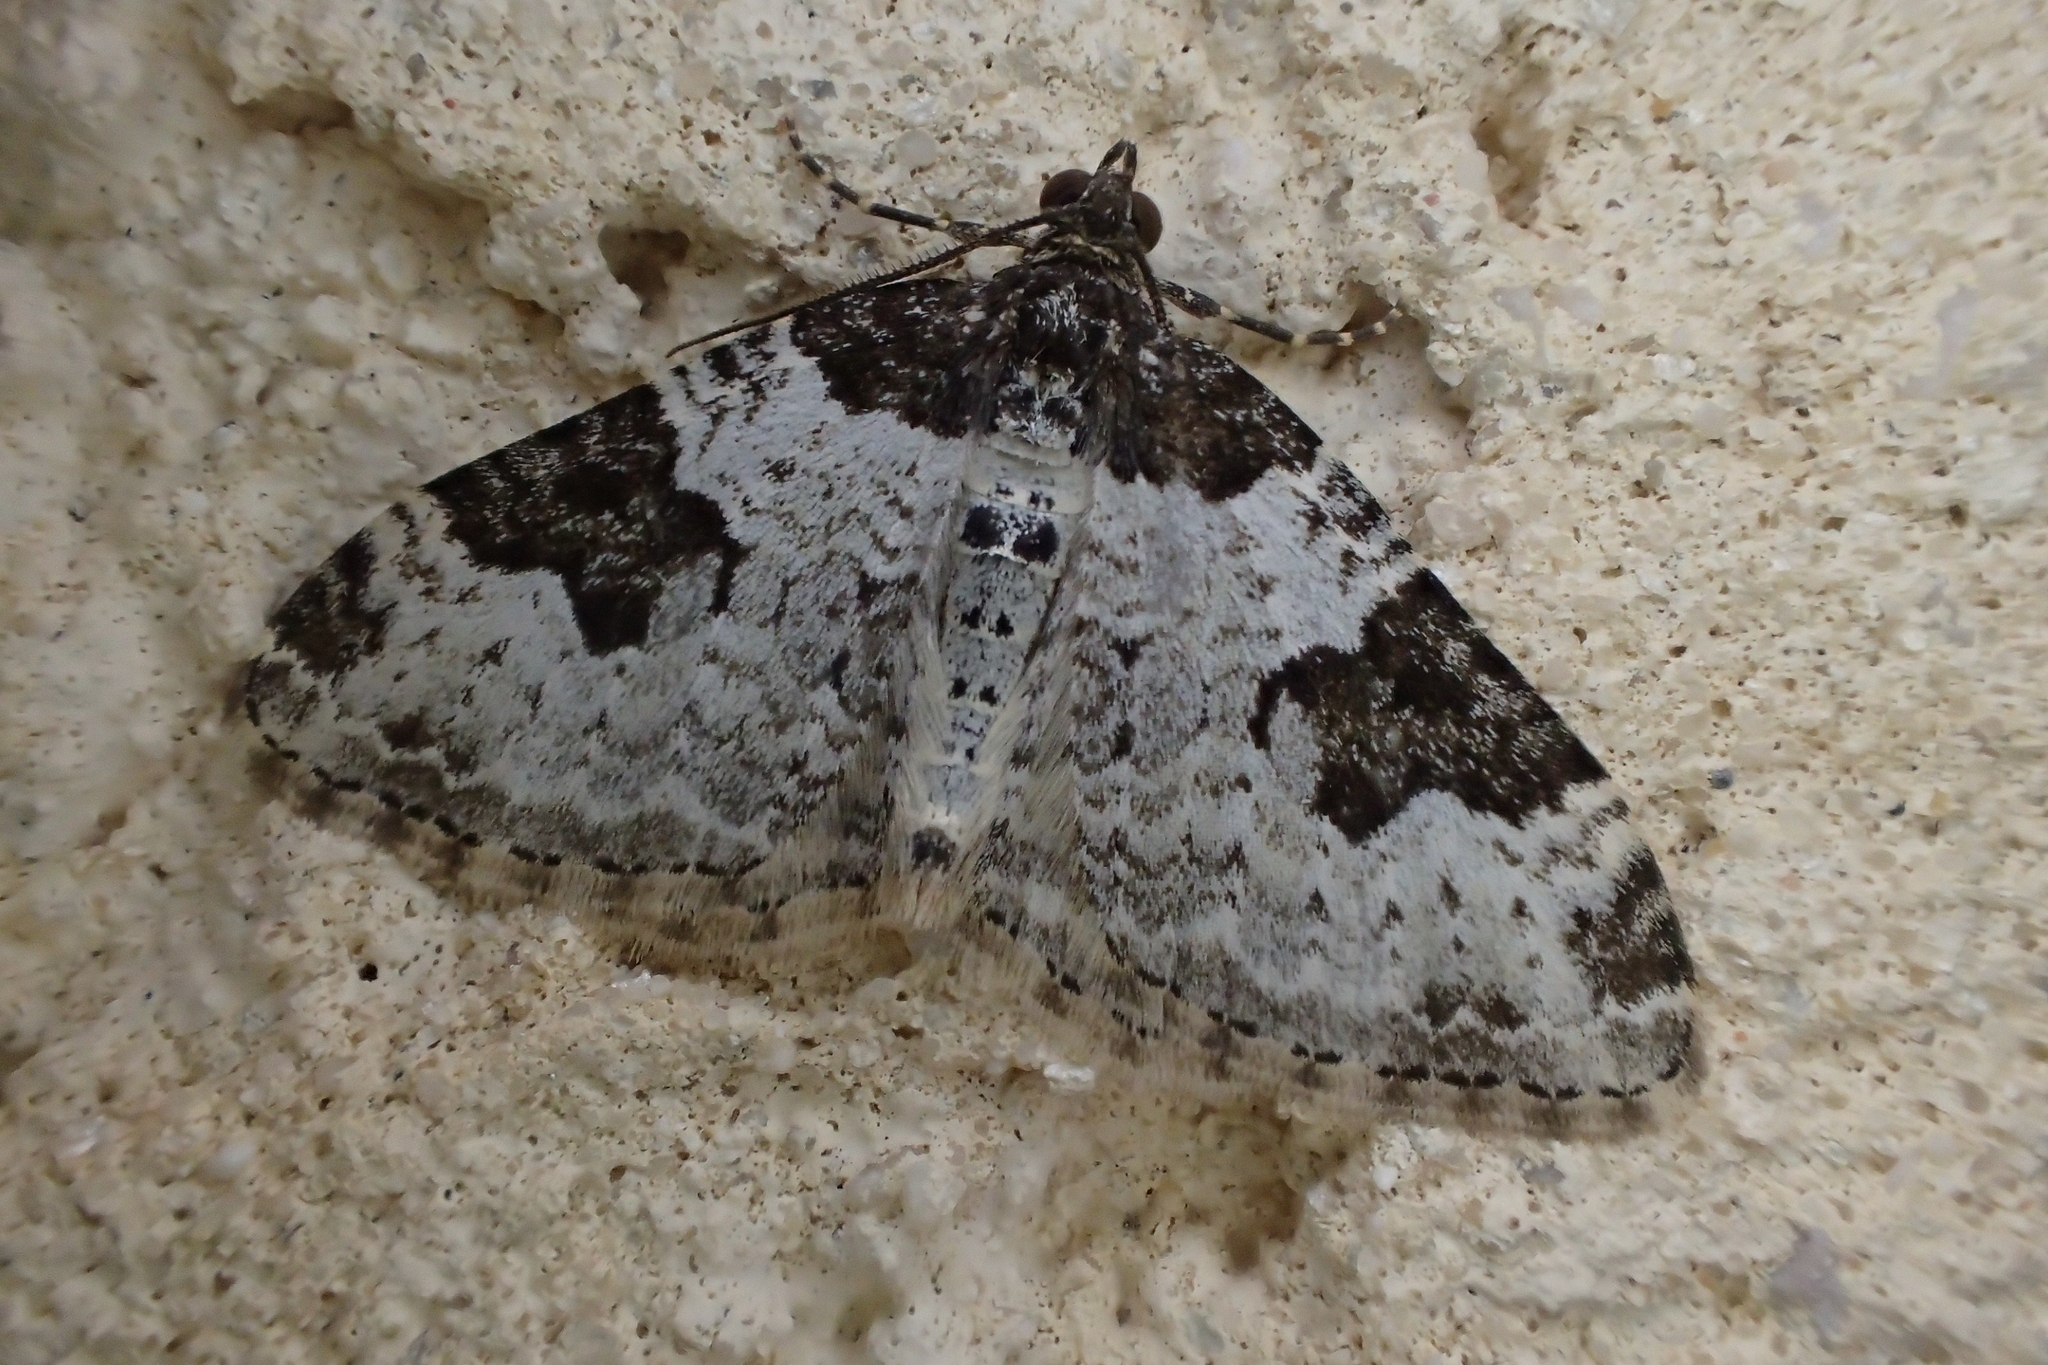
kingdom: Animalia
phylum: Arthropoda
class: Insecta
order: Lepidoptera
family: Geometridae
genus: Xanthorhoe
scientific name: Xanthorhoe fluctuata
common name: Garden carpet
